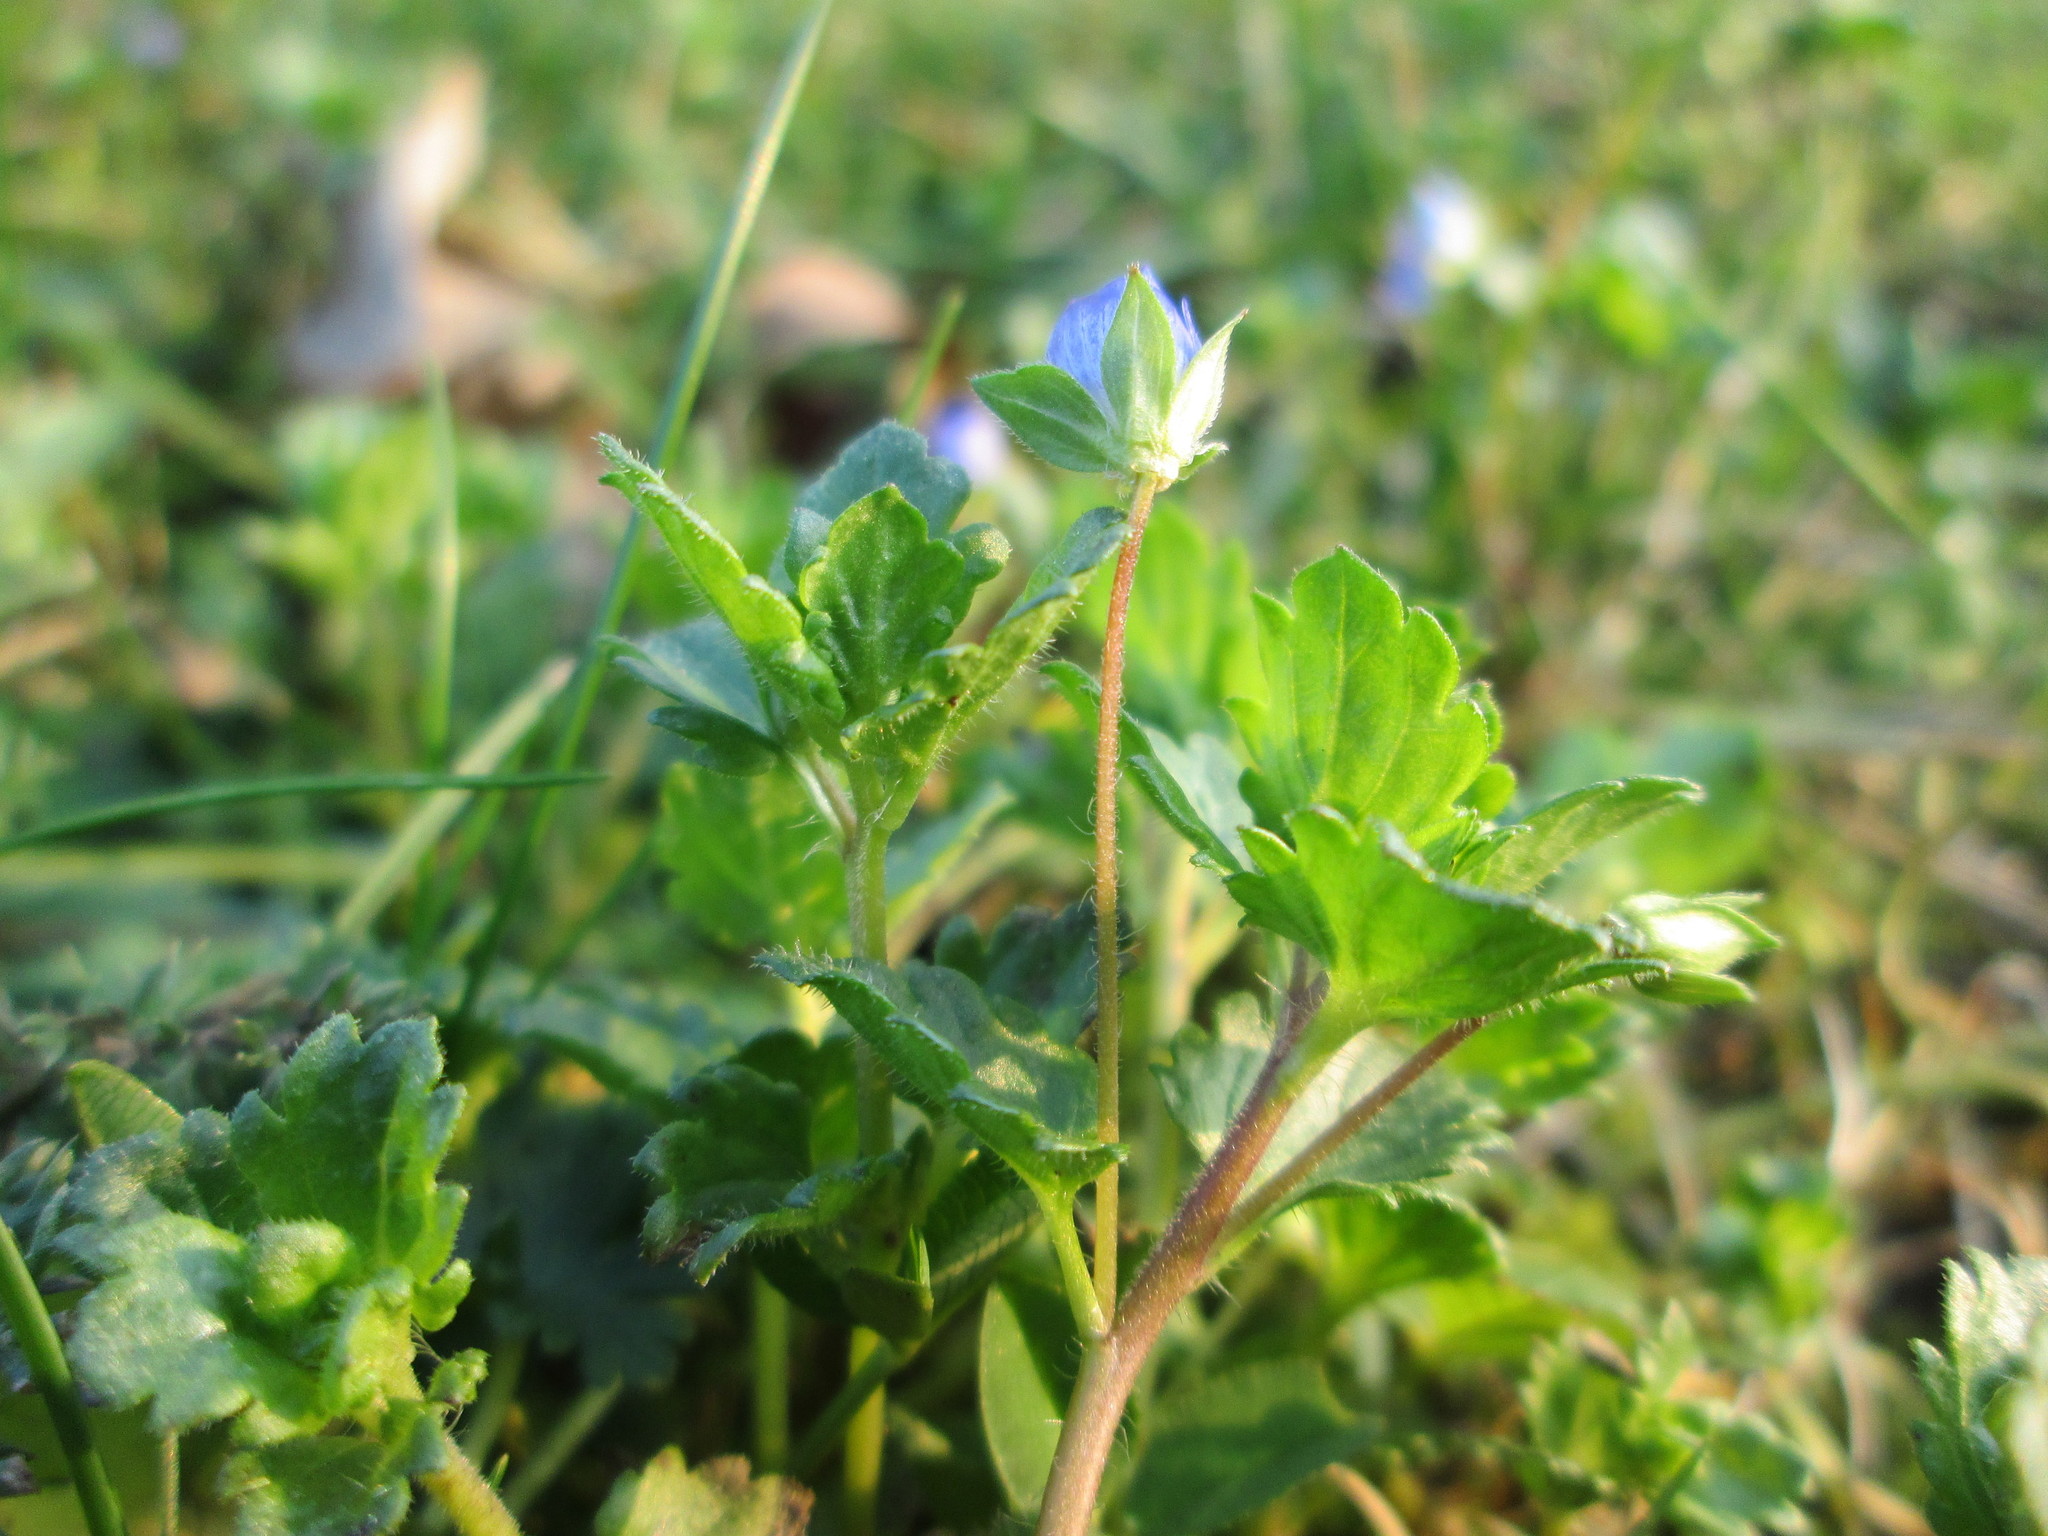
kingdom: Plantae
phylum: Tracheophyta
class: Magnoliopsida
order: Lamiales
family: Plantaginaceae
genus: Veronica
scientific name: Veronica persica
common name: Common field-speedwell
